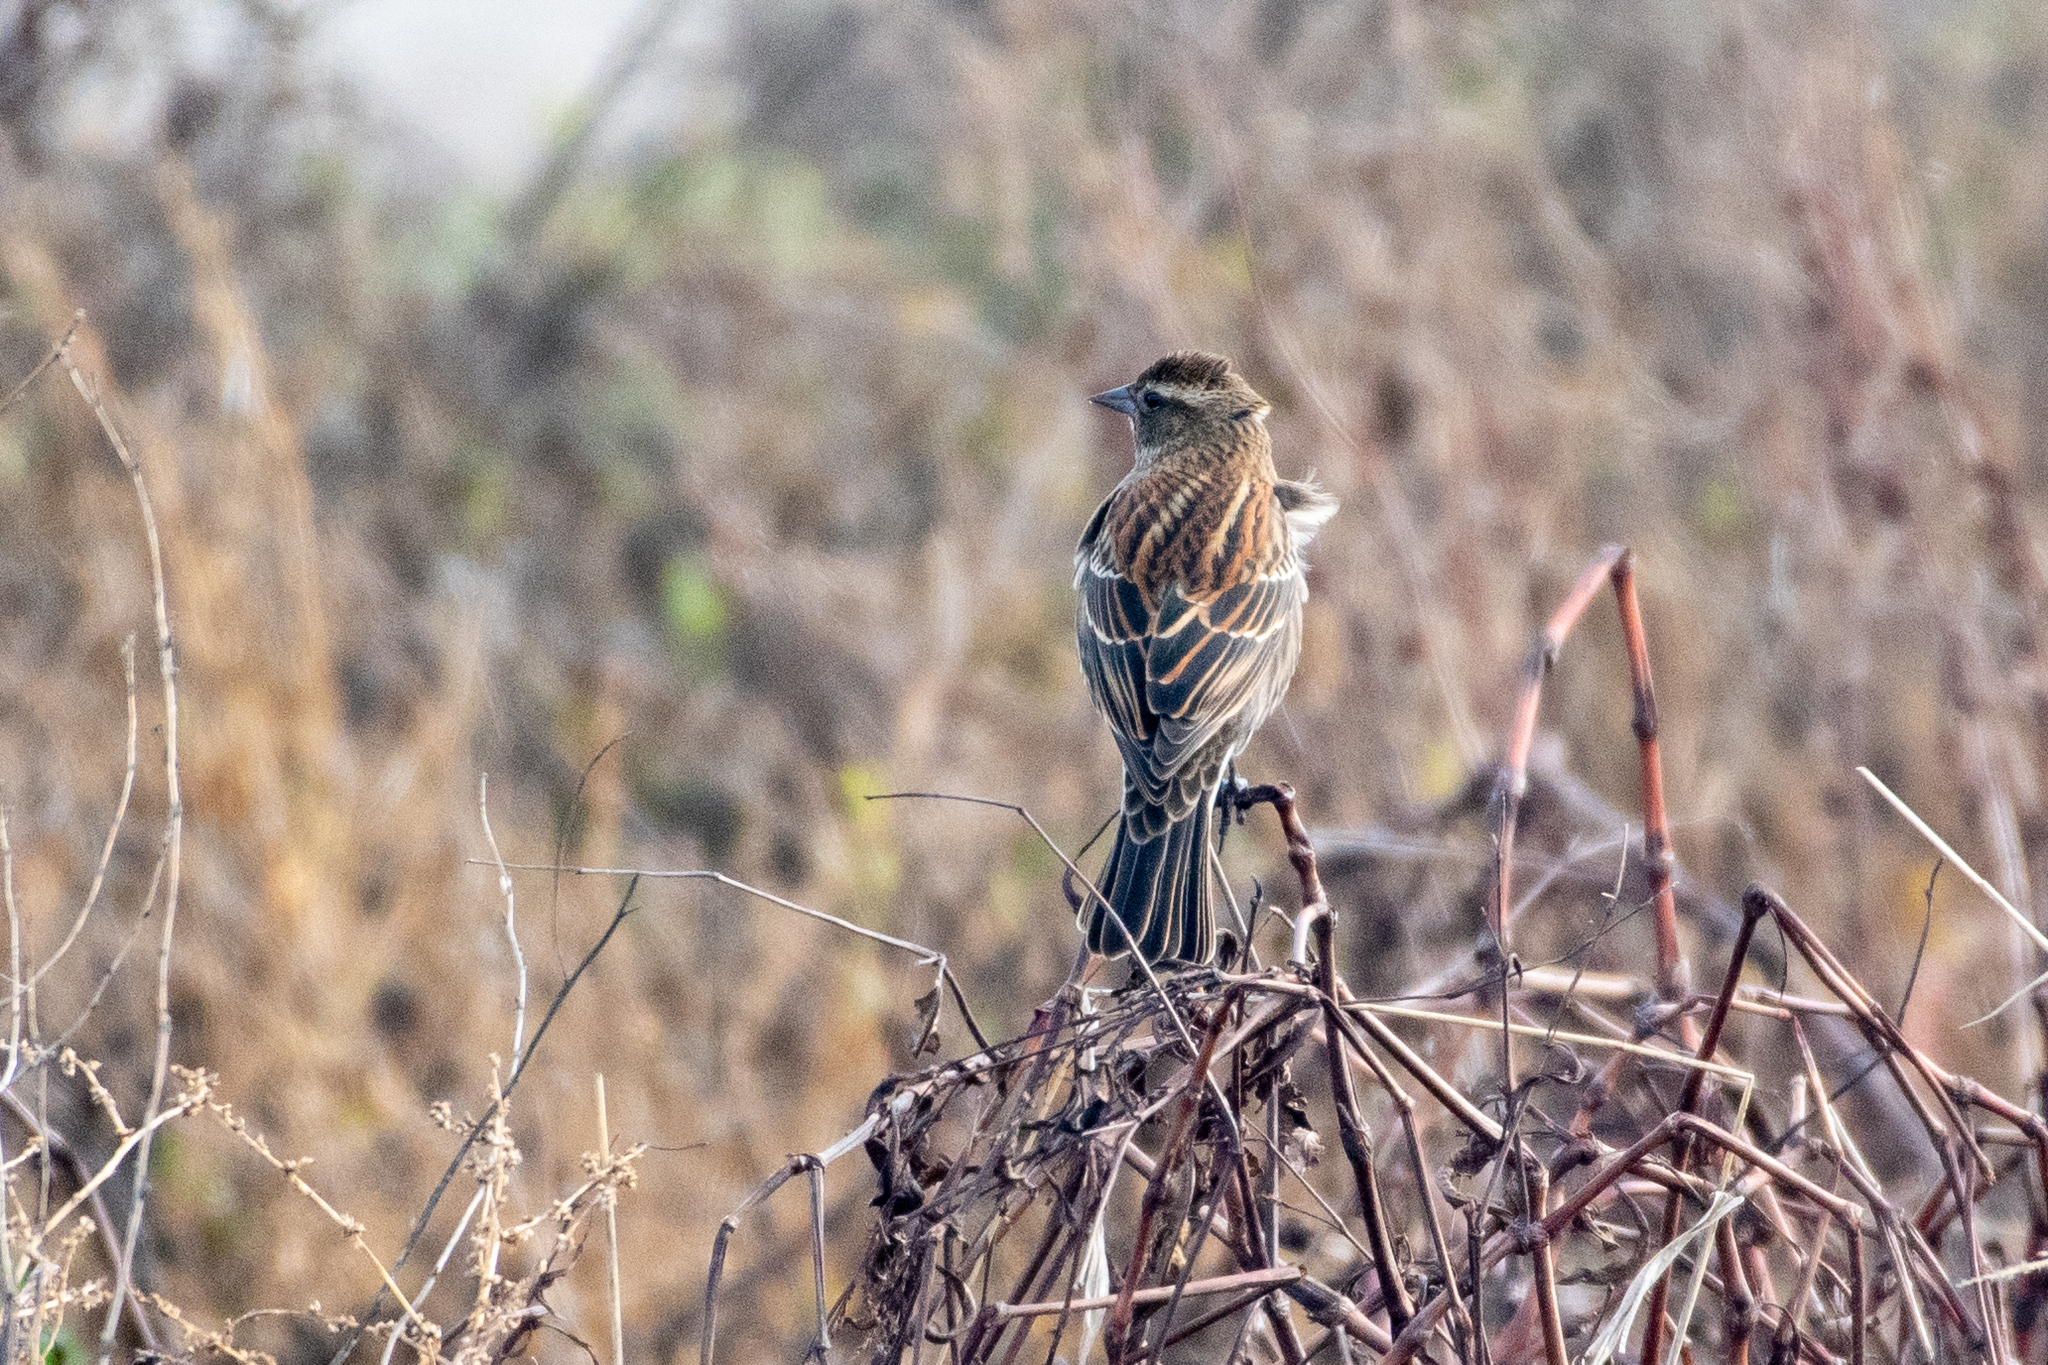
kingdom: Animalia
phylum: Chordata
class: Aves
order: Passeriformes
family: Icteridae
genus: Agelaius
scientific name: Agelaius phoeniceus
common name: Red-winged blackbird
